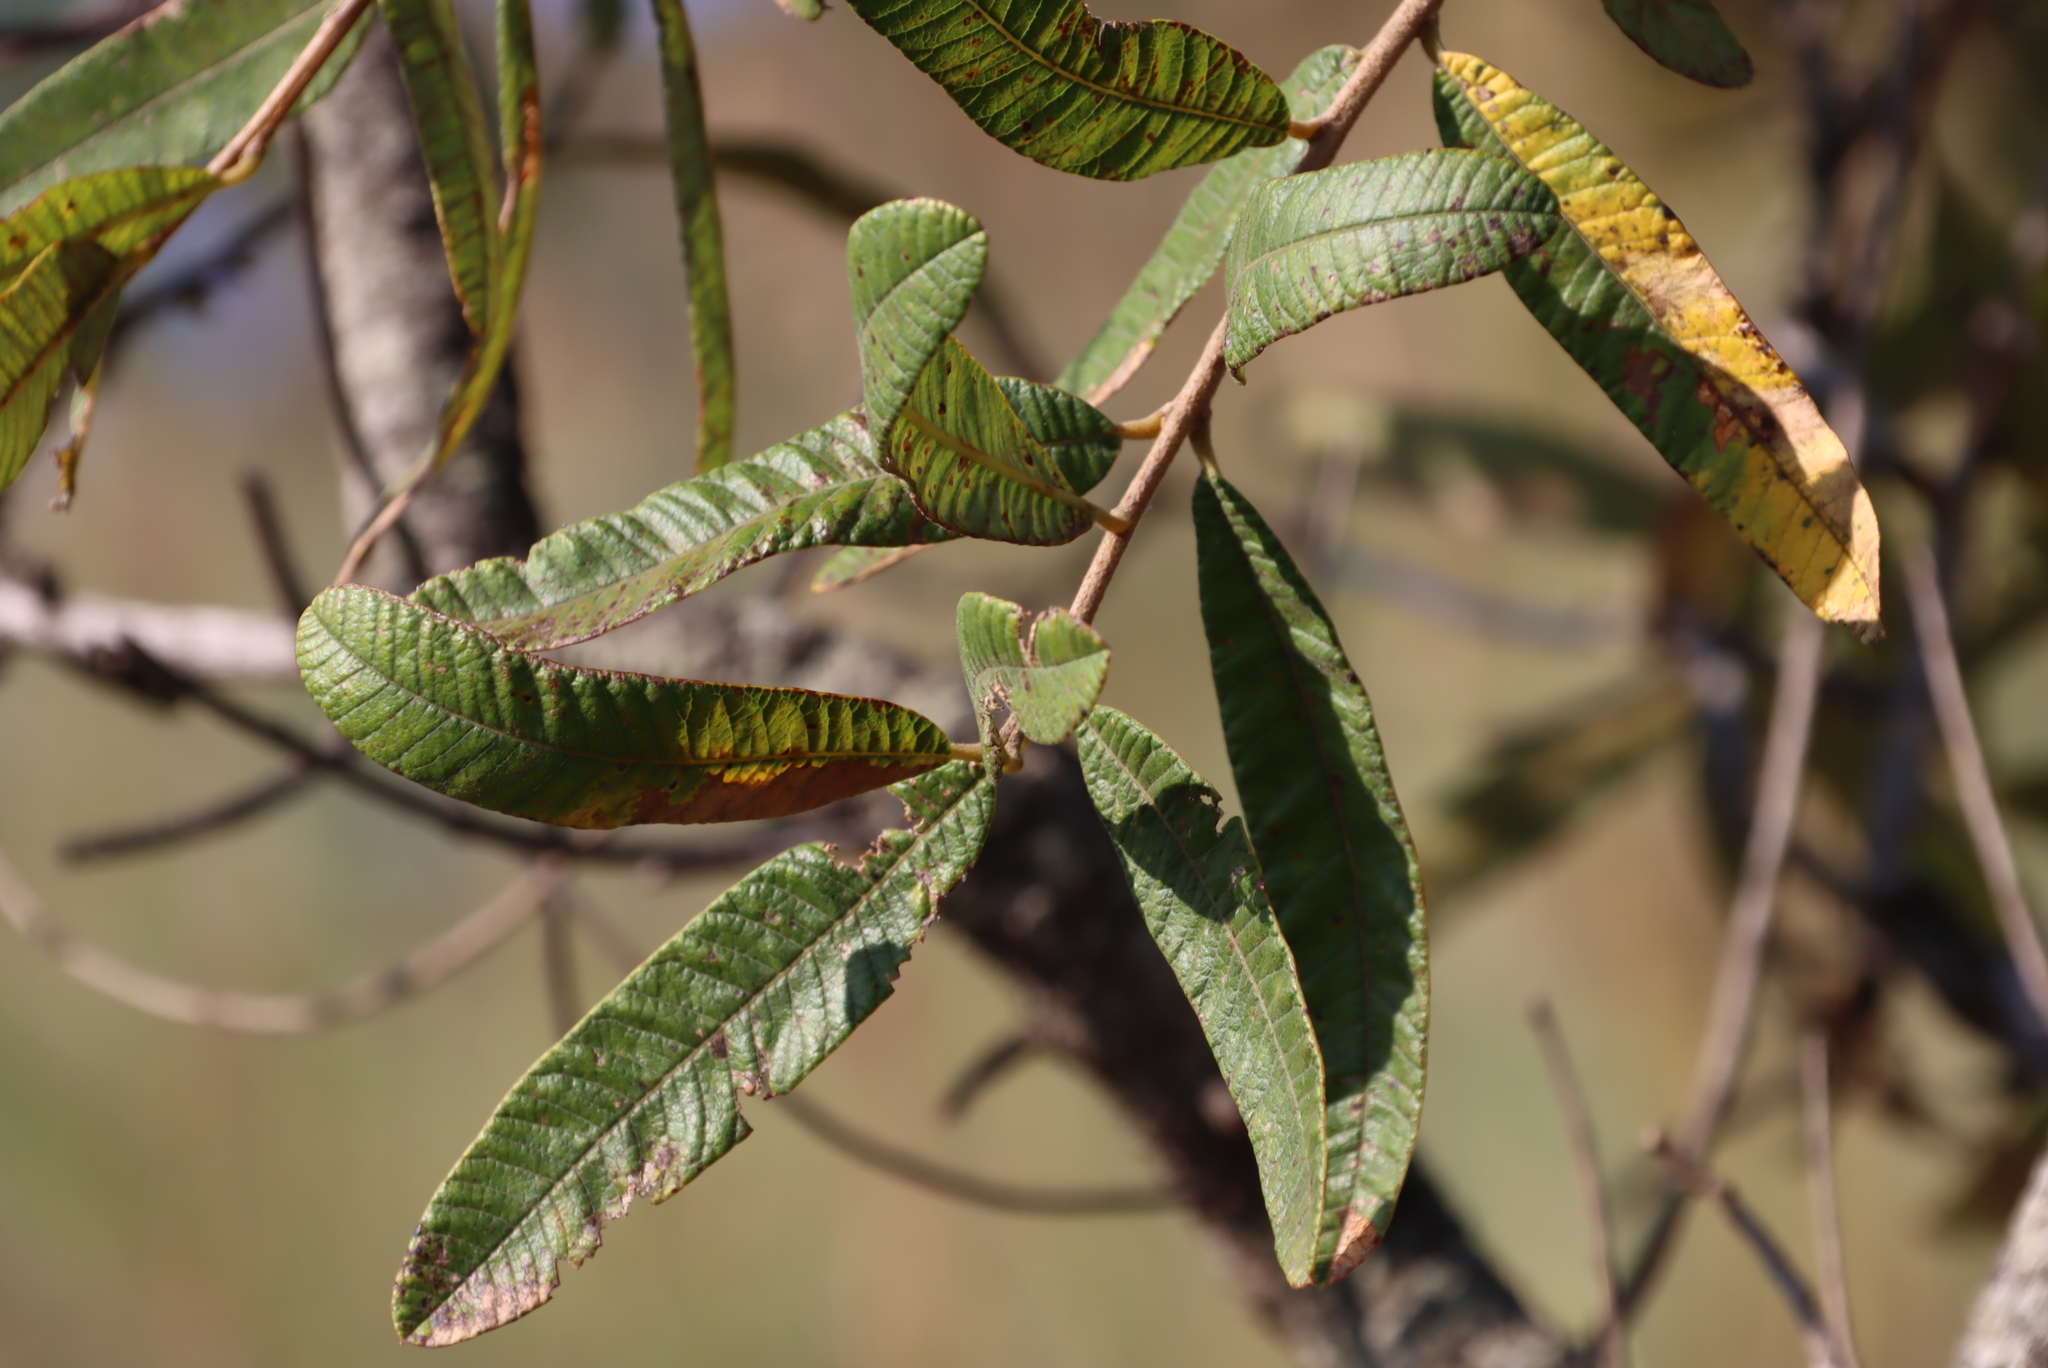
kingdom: Plantae
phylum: Tracheophyta
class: Magnoliopsida
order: Sapindales
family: Anacardiaceae
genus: Ozoroa
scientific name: Ozoroa paniculosa
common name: Bushveld ozoroa
